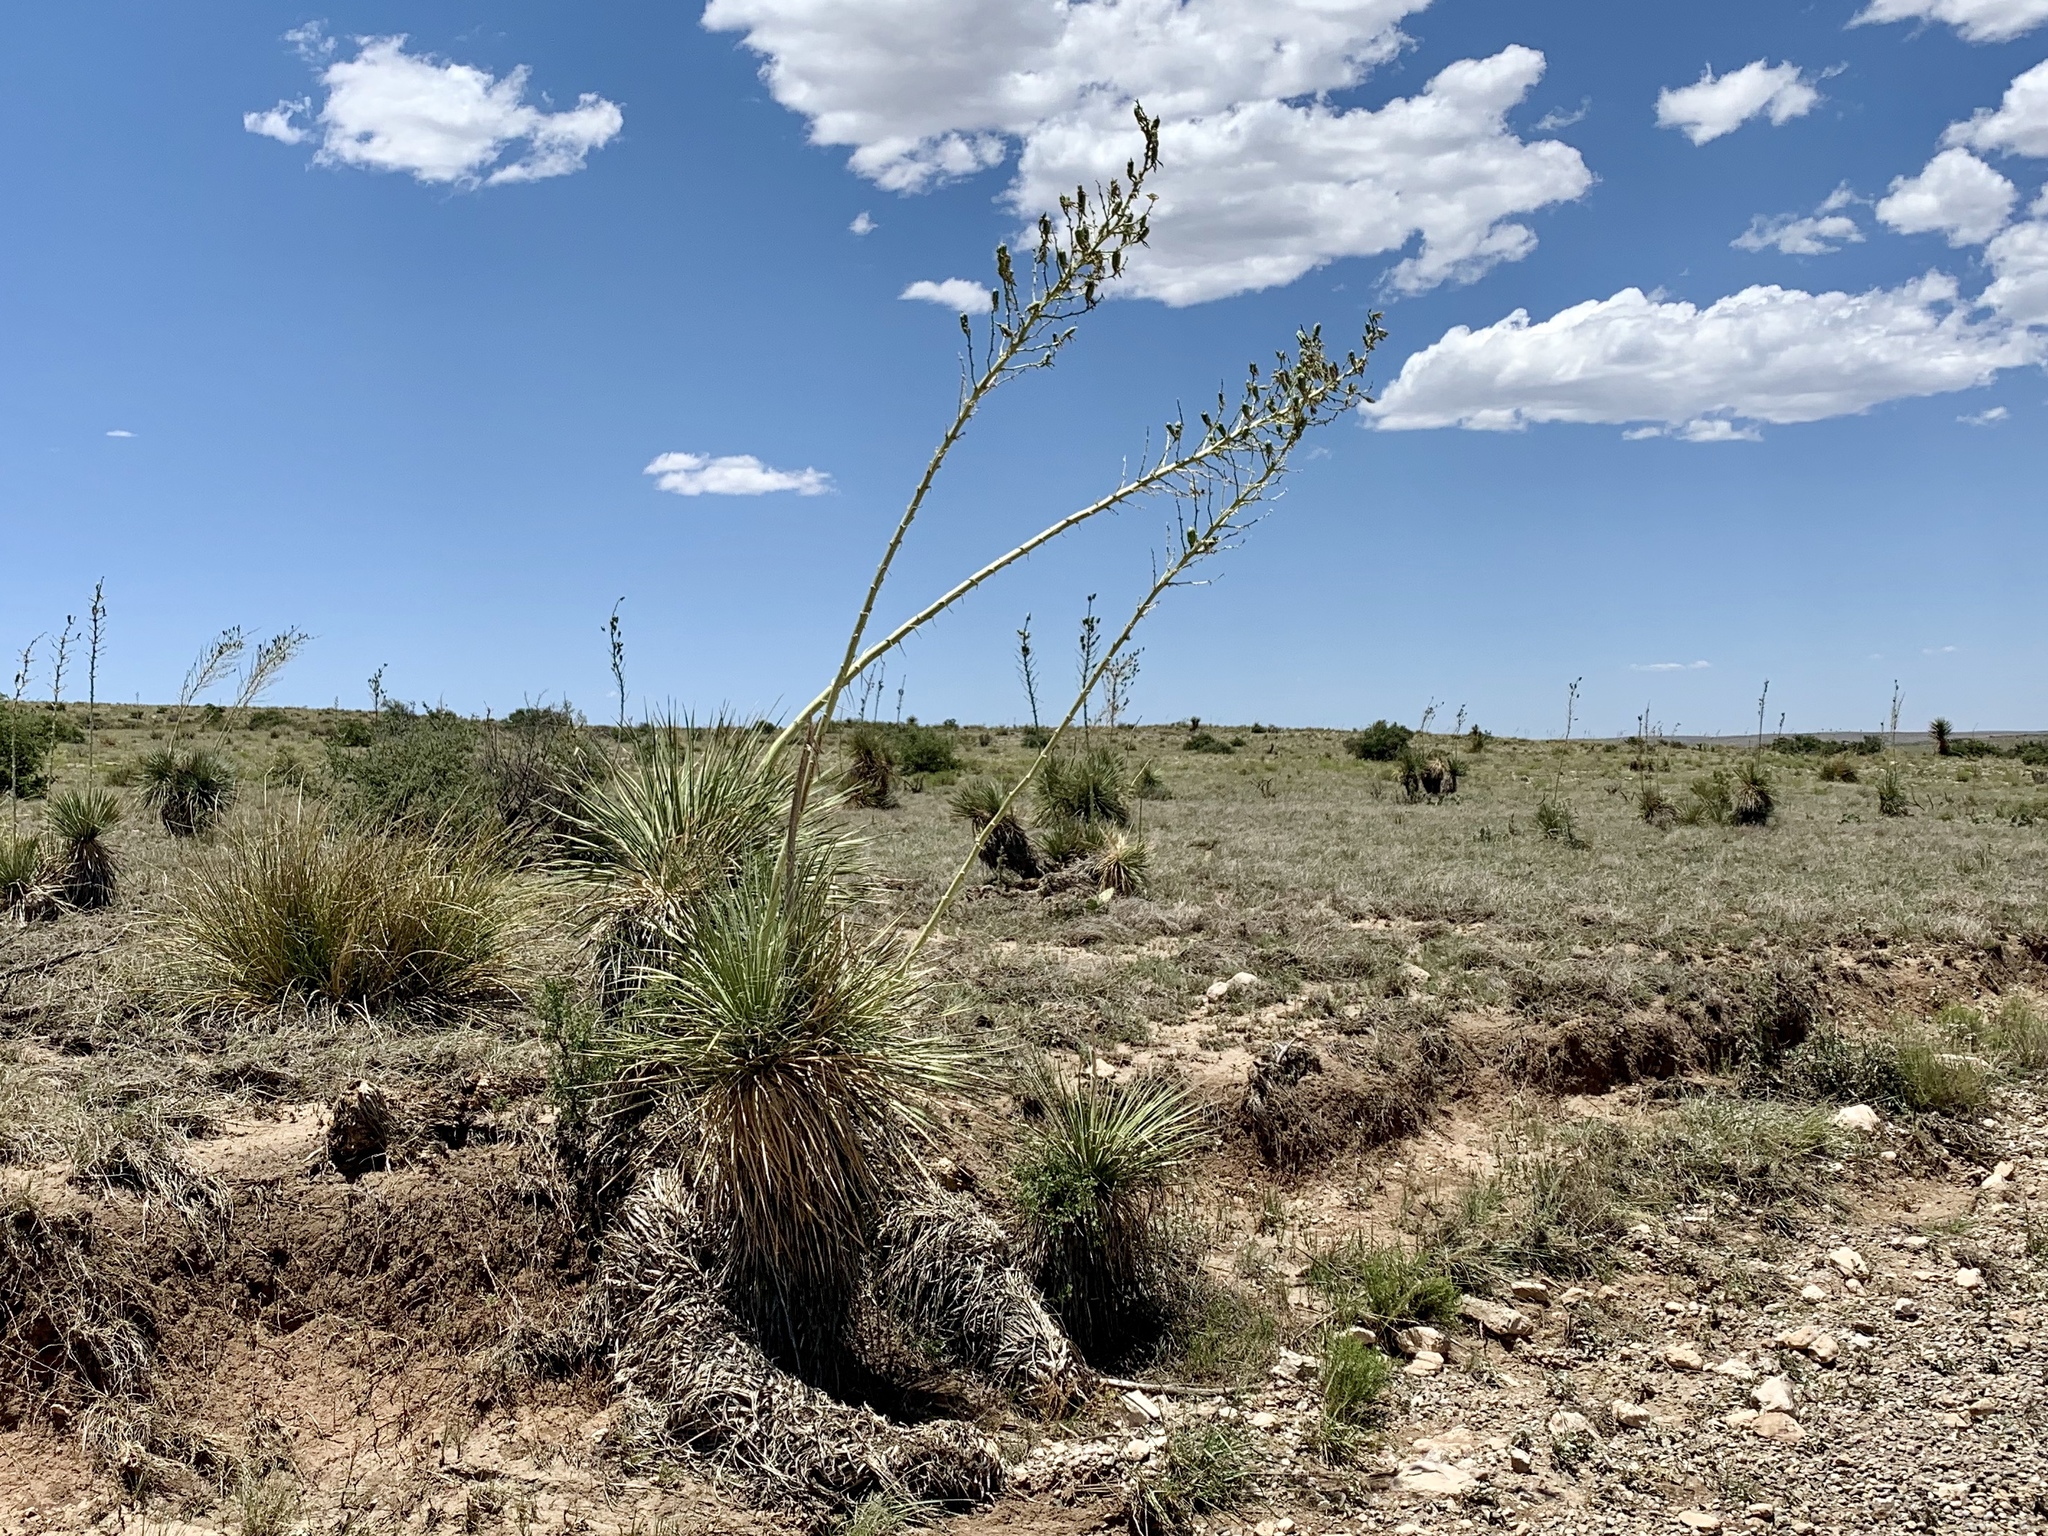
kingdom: Plantae
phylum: Tracheophyta
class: Liliopsida
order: Asparagales
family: Asparagaceae
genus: Yucca
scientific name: Yucca elata
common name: Palmella
